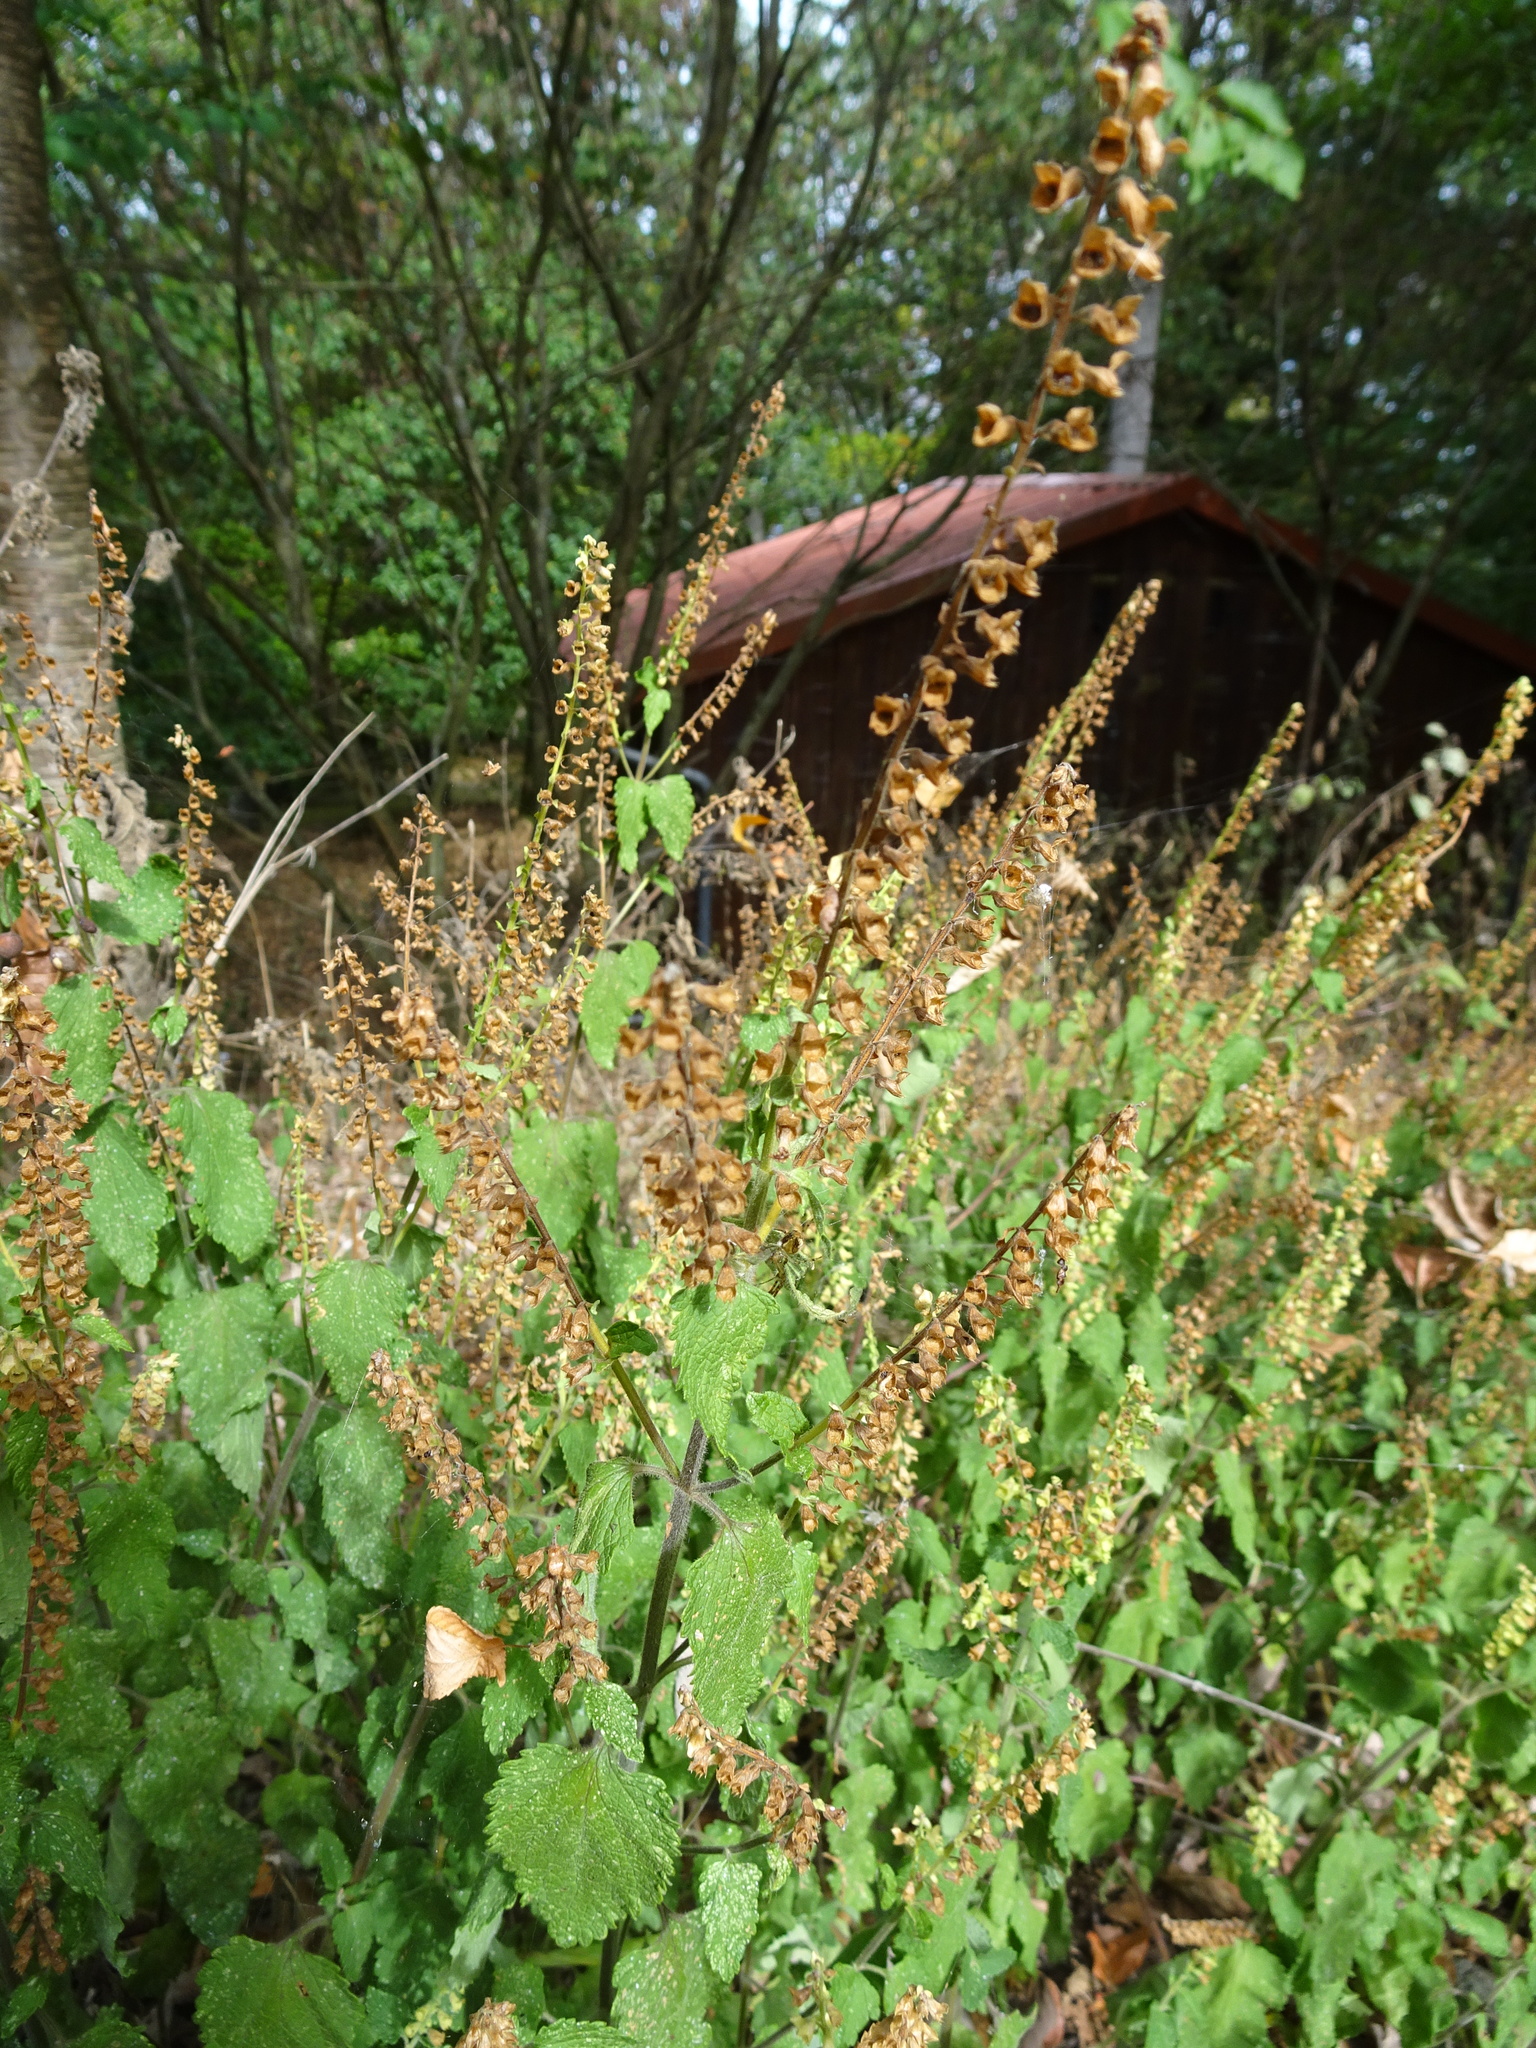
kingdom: Plantae
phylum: Tracheophyta
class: Magnoliopsida
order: Lamiales
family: Lamiaceae
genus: Teucrium
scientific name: Teucrium scorodonia
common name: Woodland germander
